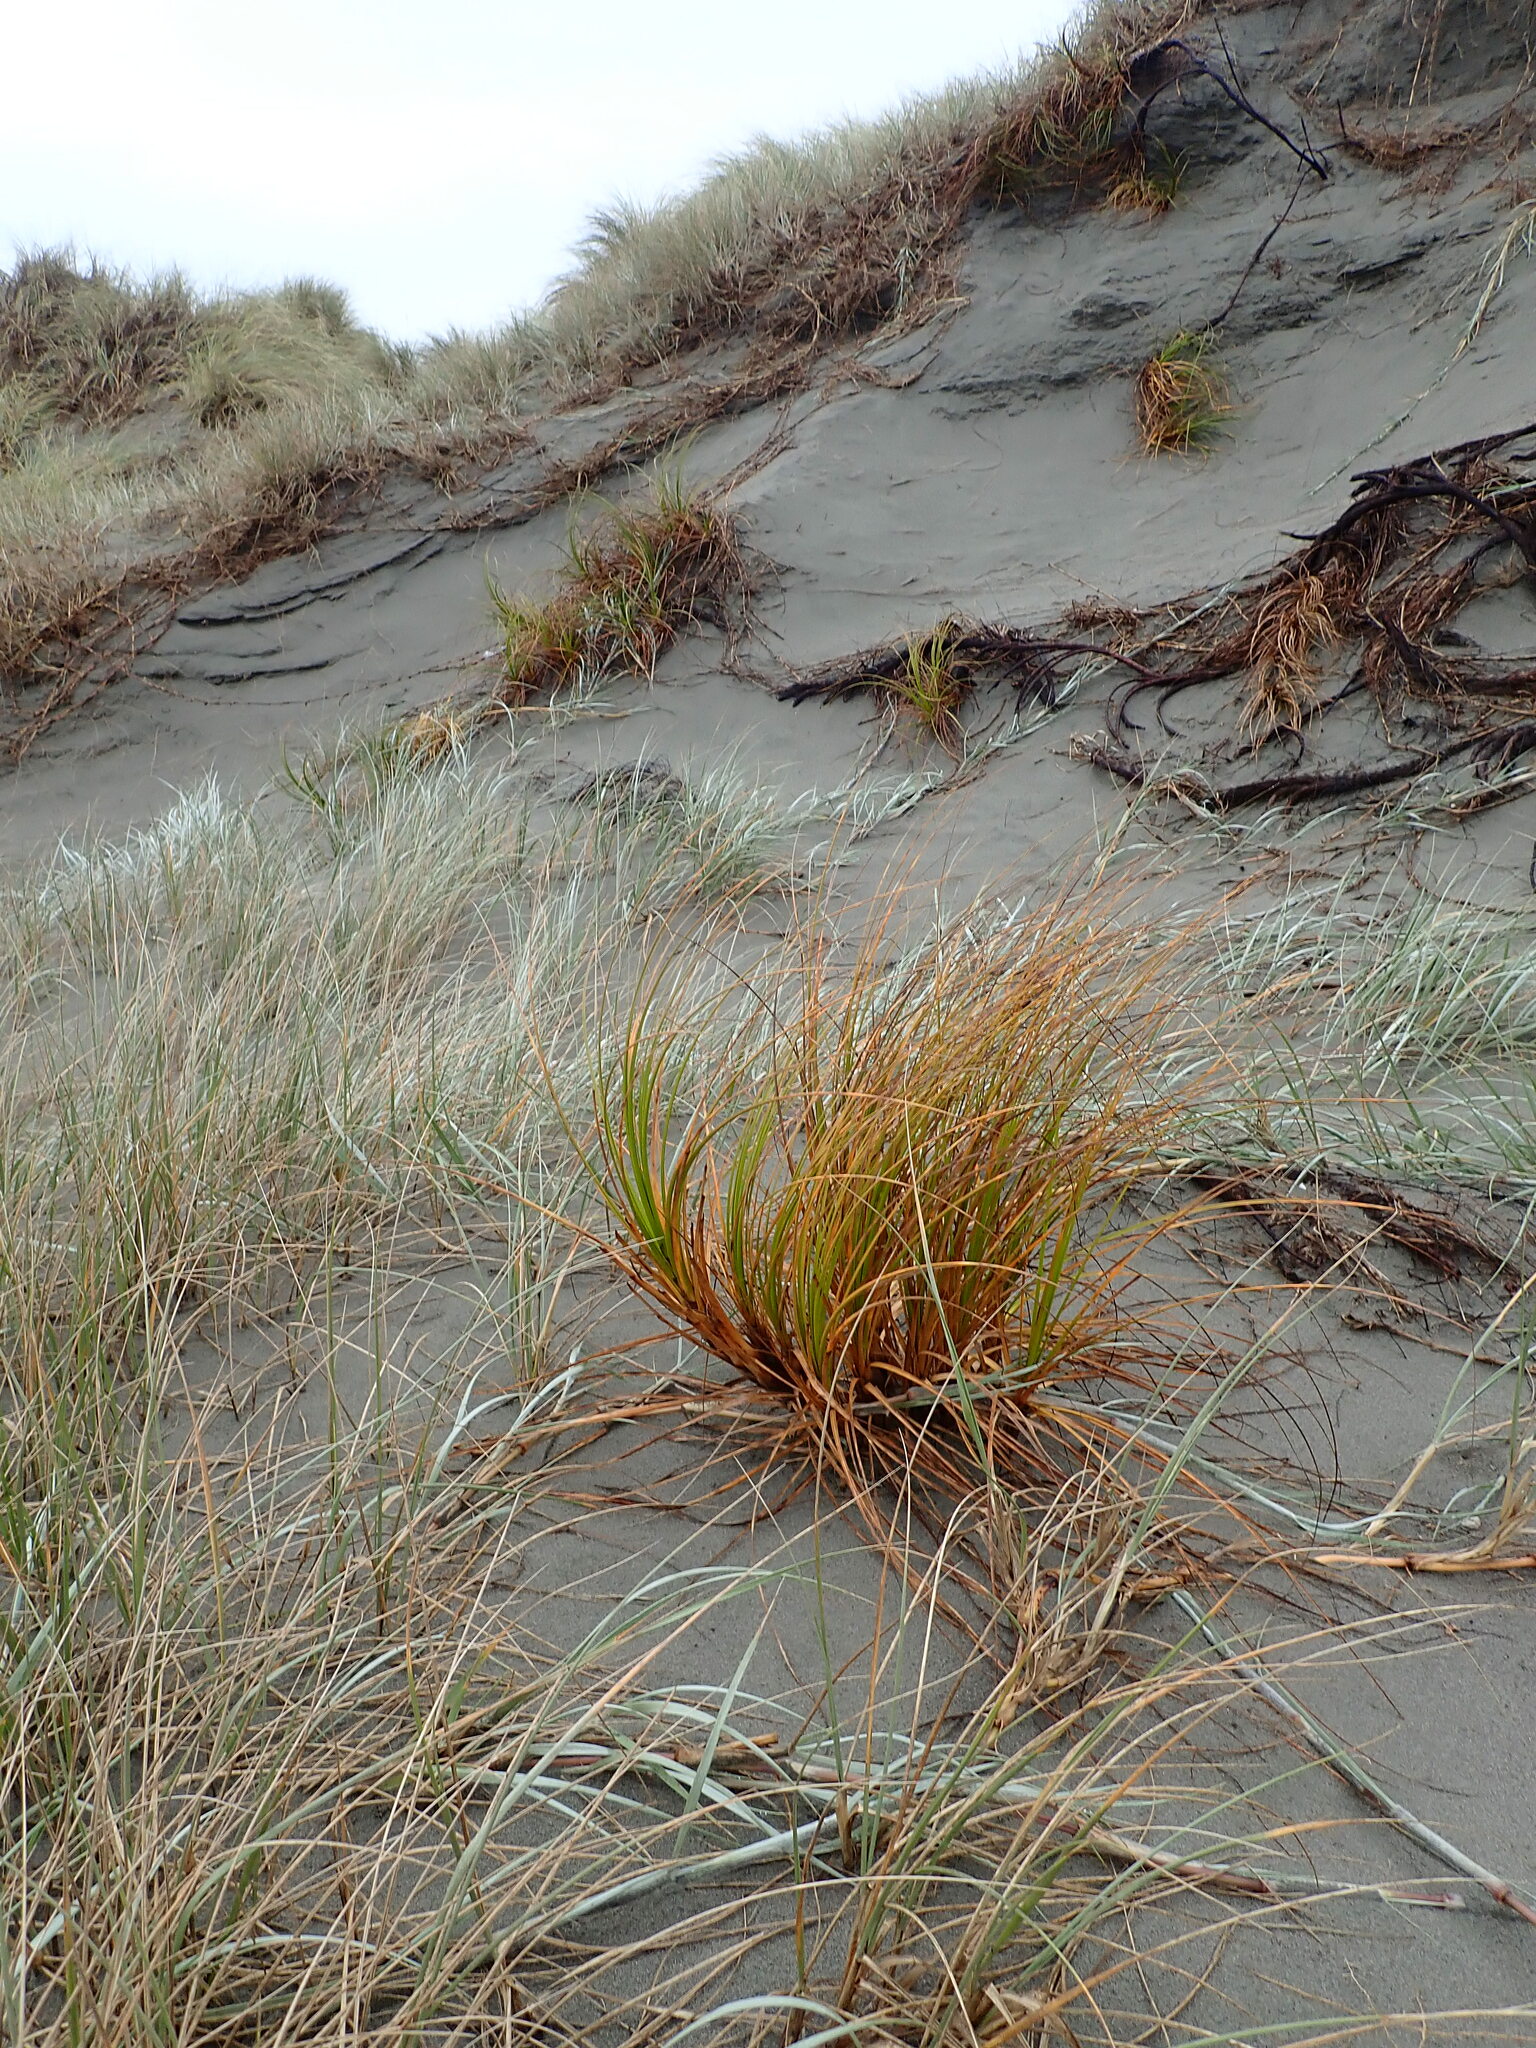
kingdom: Plantae
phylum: Tracheophyta
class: Liliopsida
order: Poales
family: Cyperaceae
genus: Ficinia
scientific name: Ficinia spiralis
